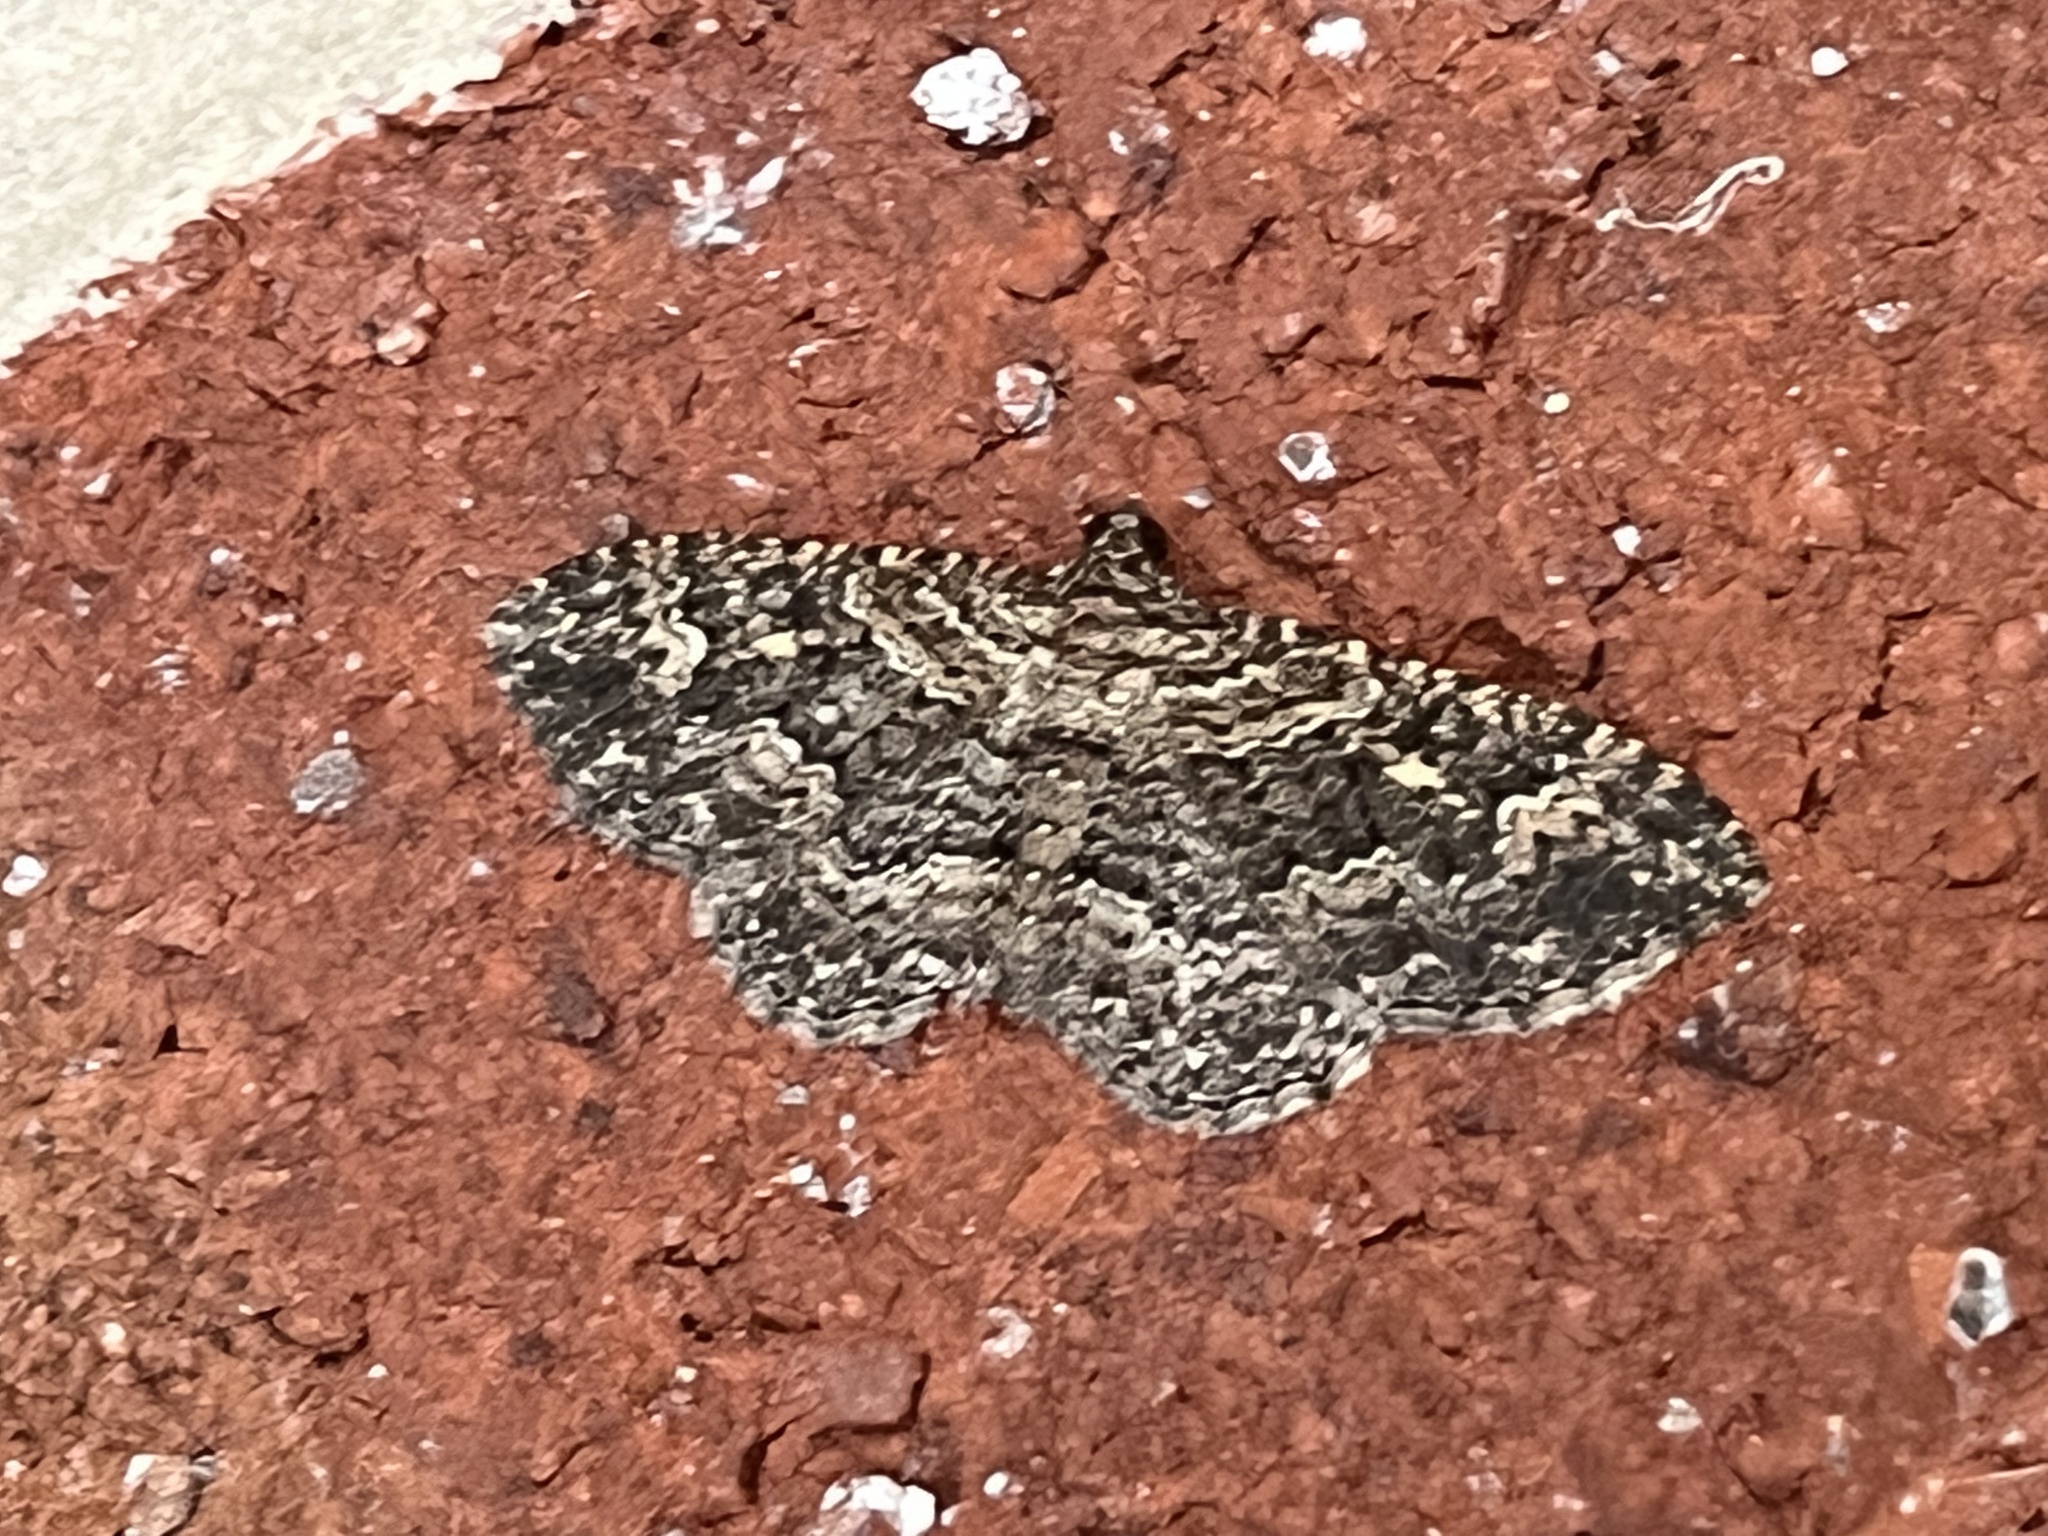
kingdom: Animalia
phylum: Arthropoda
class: Insecta
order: Lepidoptera
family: Geometridae
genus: Disclisioprocta
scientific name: Disclisioprocta stellata
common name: Somber carpet
